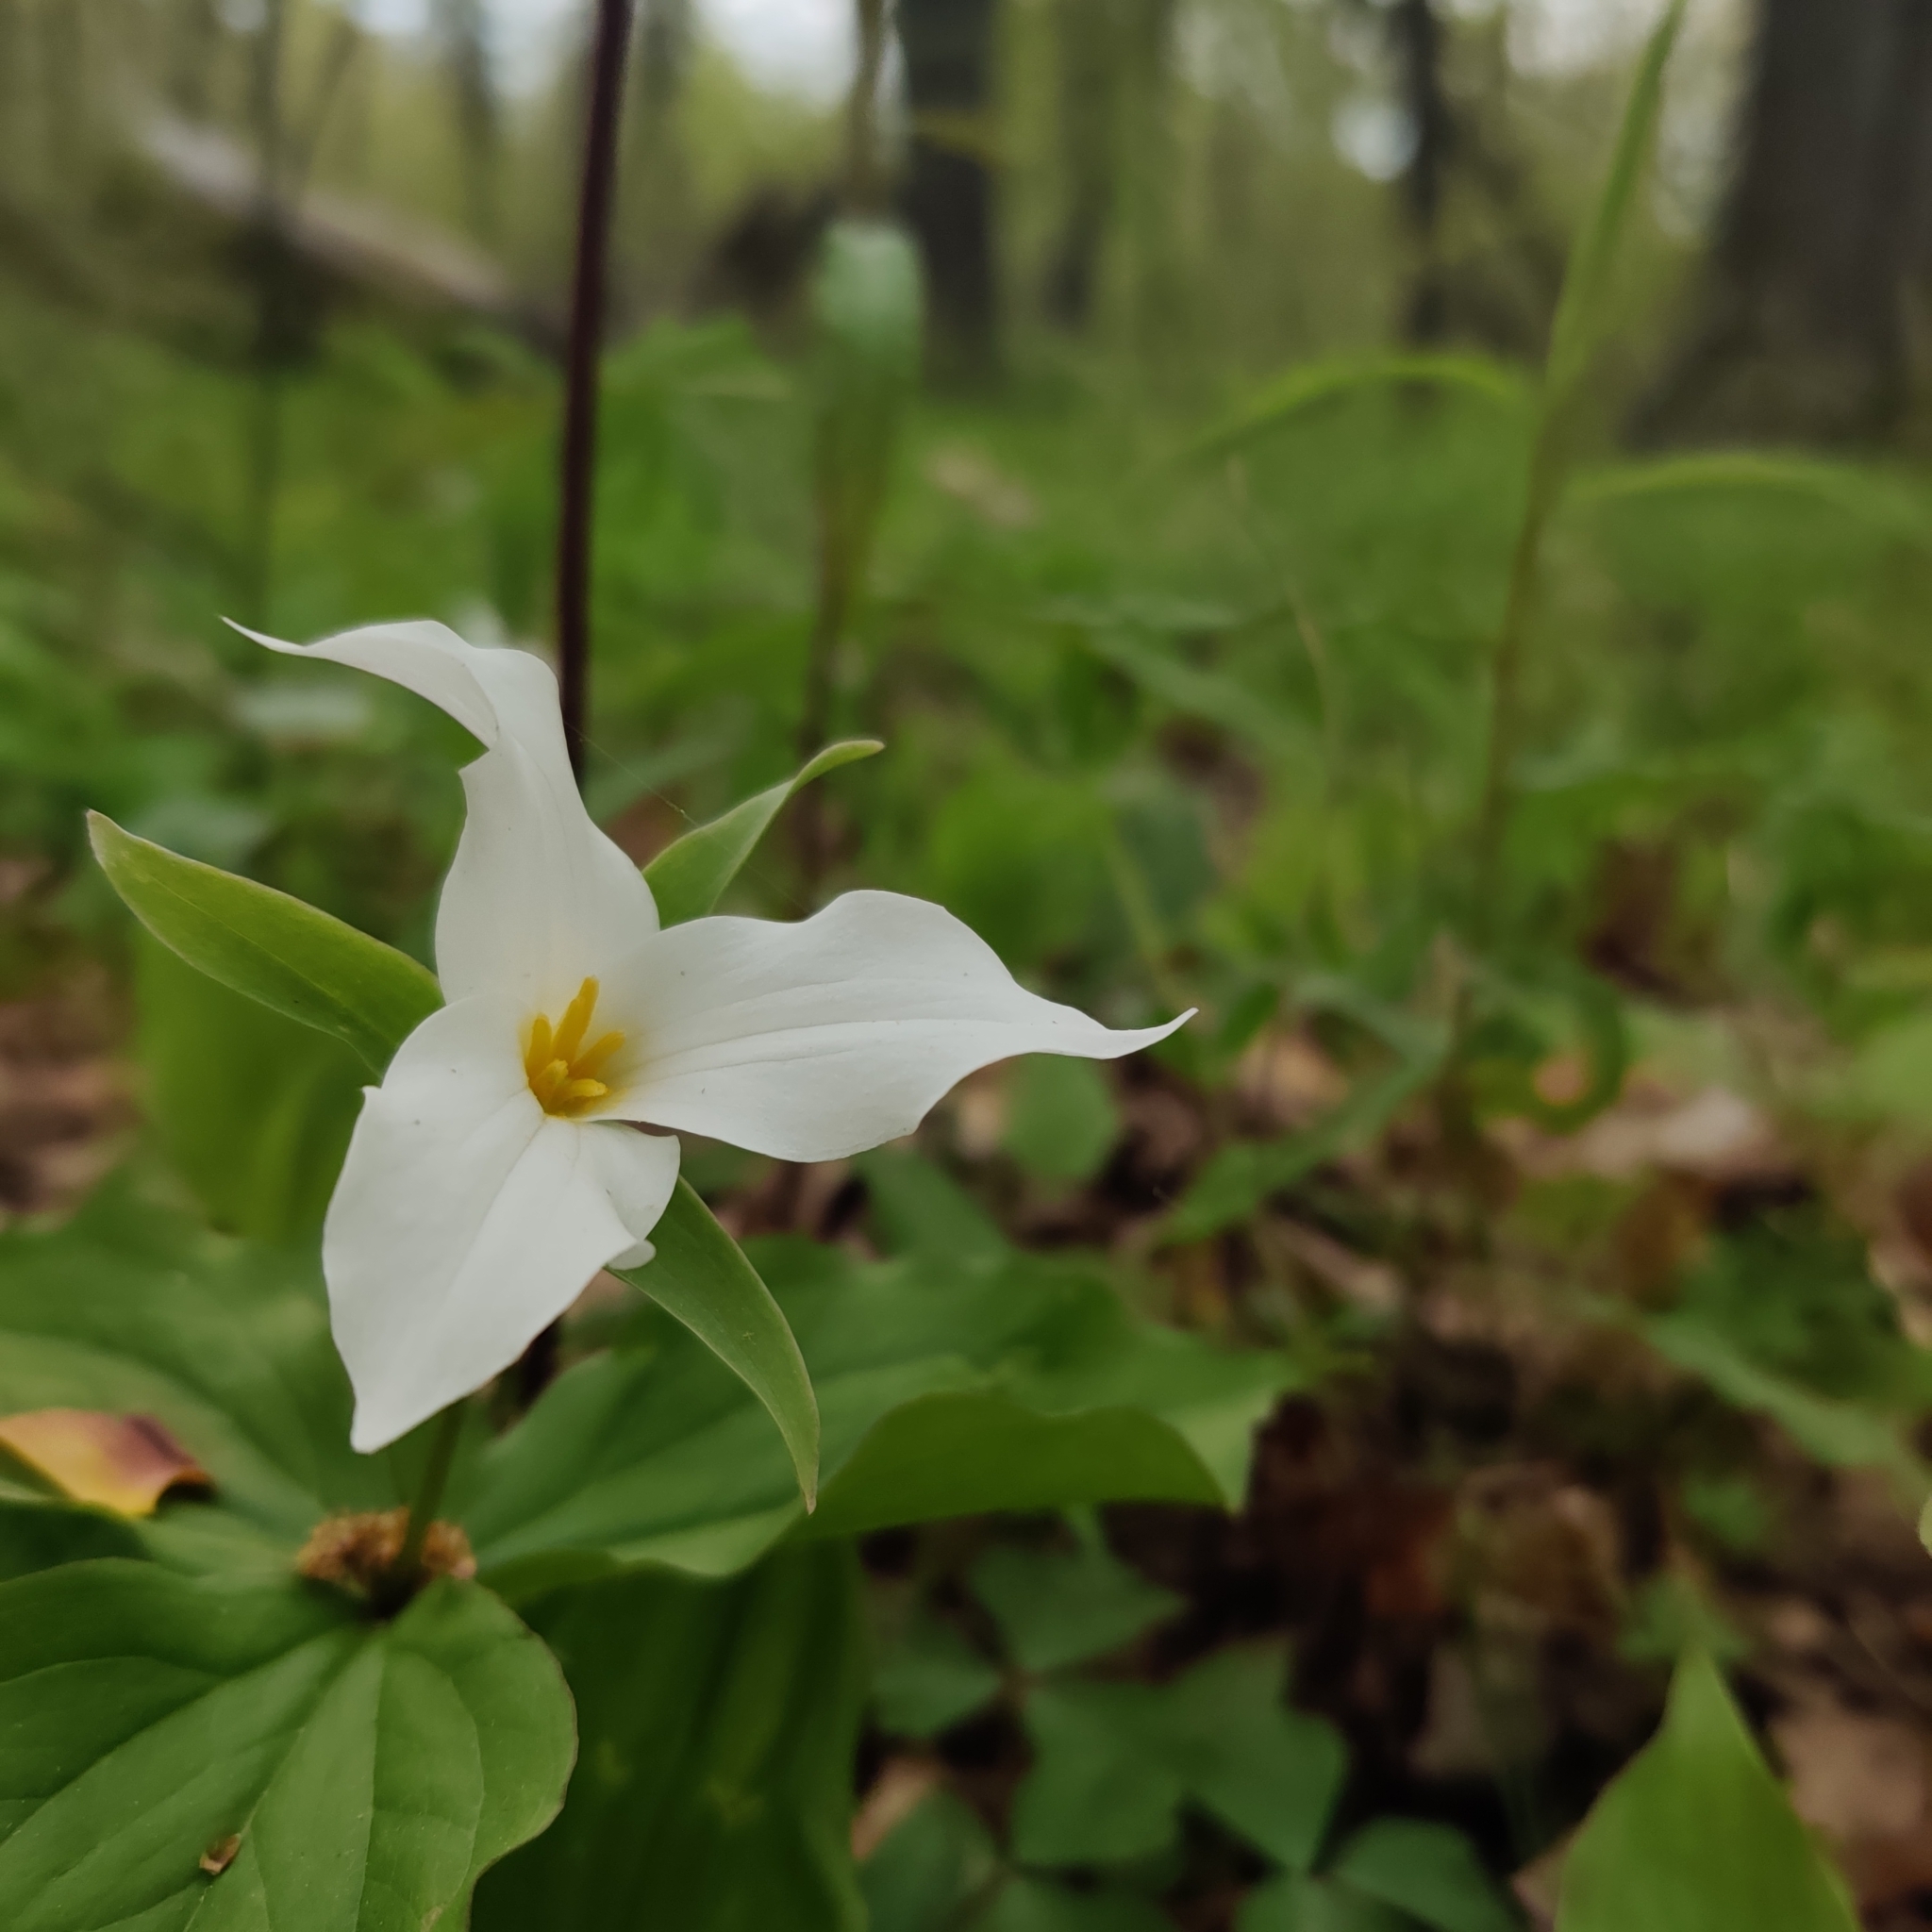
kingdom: Plantae
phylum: Tracheophyta
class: Liliopsida
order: Liliales
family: Melanthiaceae
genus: Trillium
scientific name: Trillium grandiflorum
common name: Great white trillium
